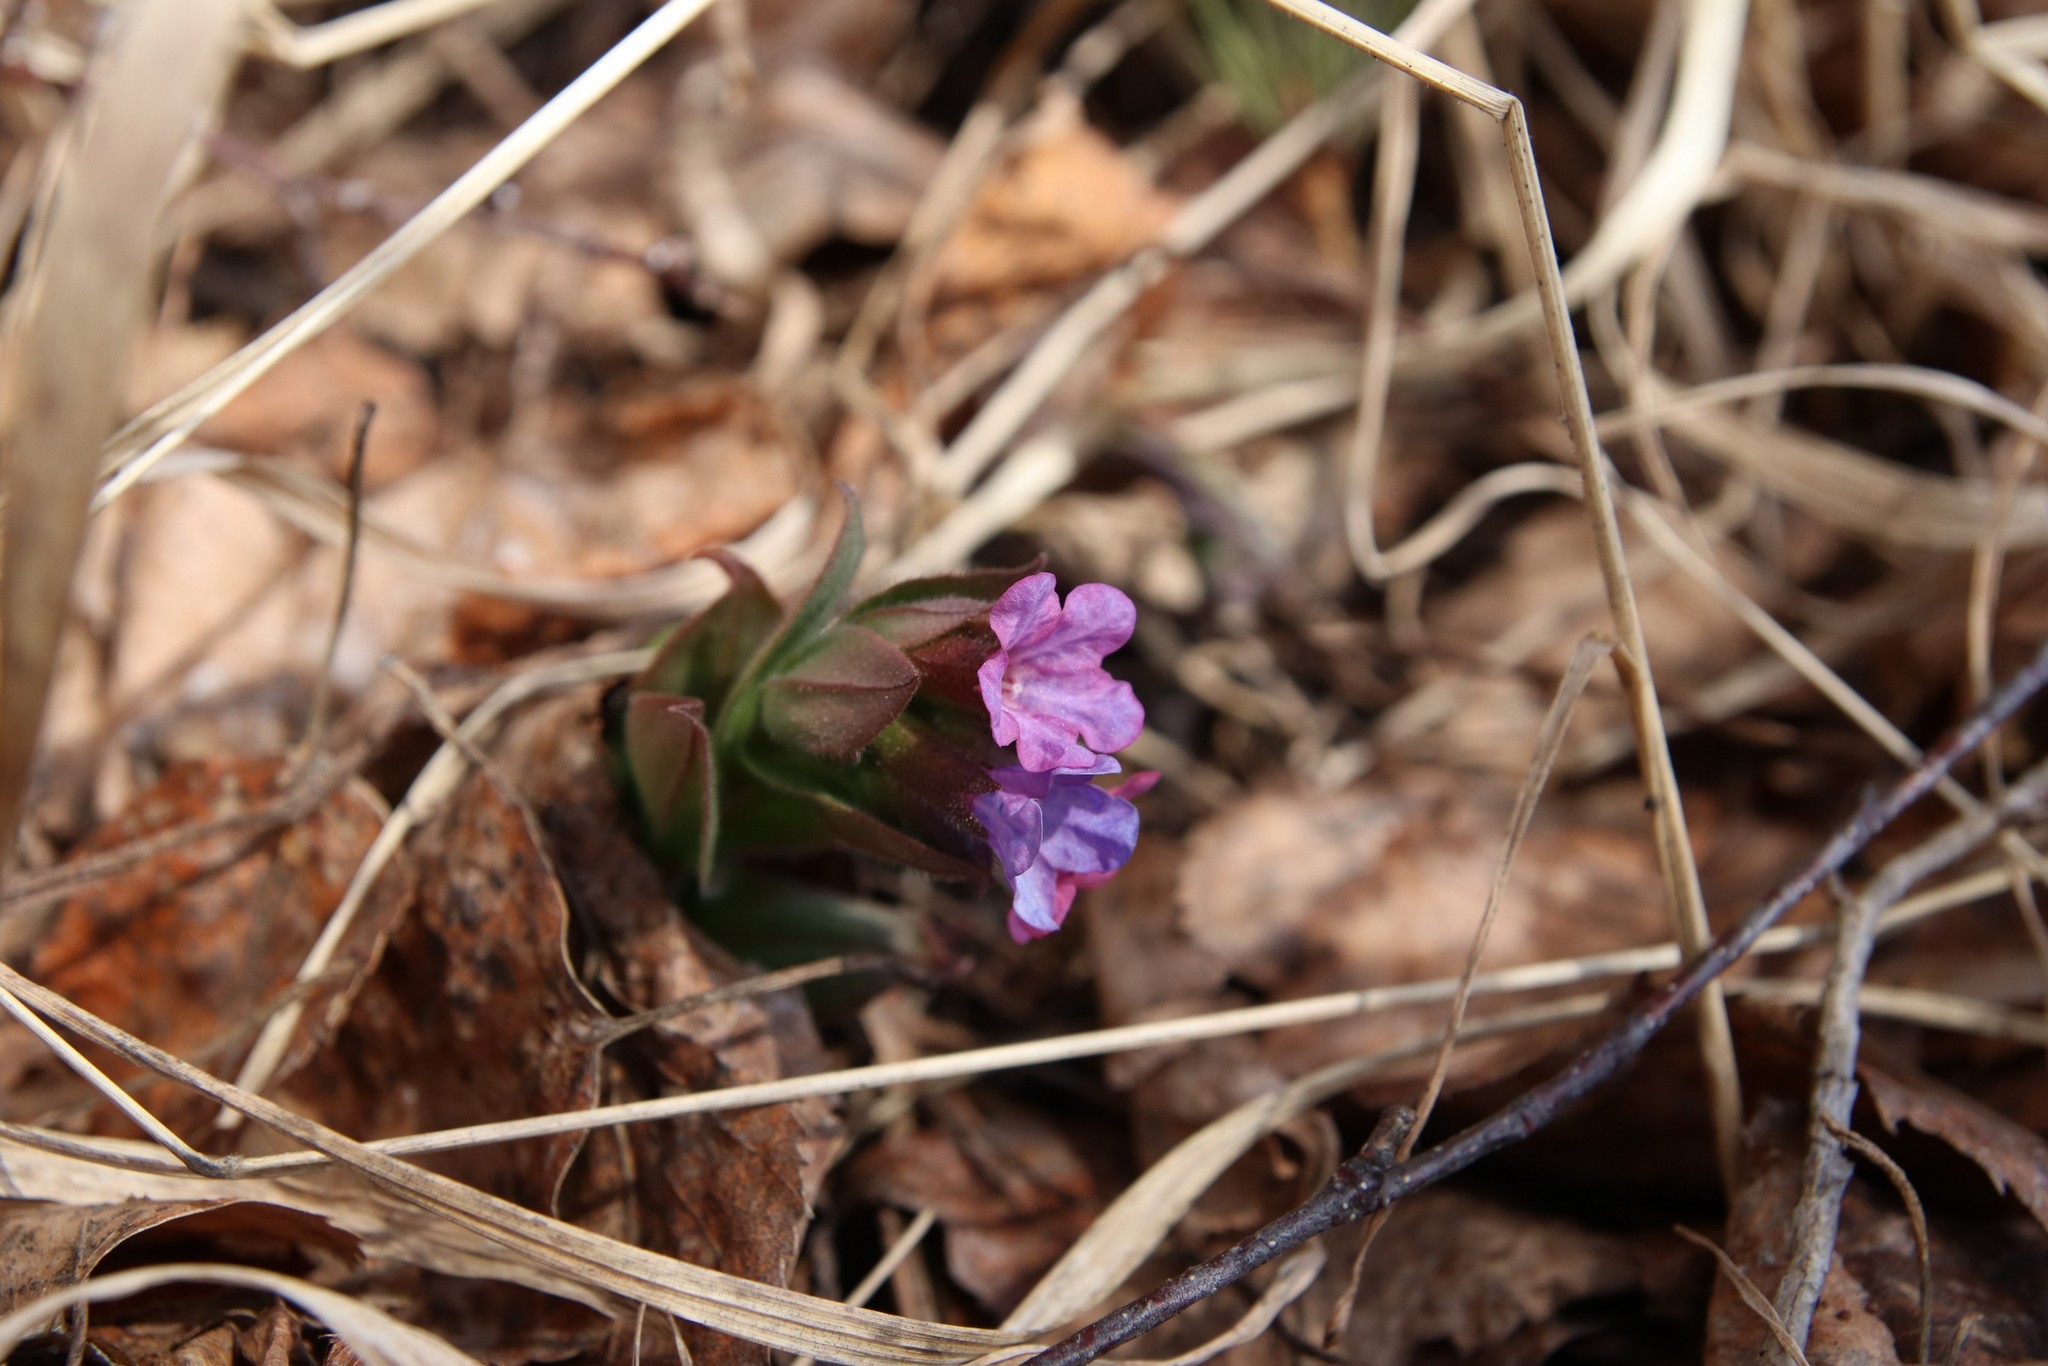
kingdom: Plantae
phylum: Tracheophyta
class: Magnoliopsida
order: Boraginales
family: Boraginaceae
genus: Pulmonaria
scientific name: Pulmonaria obscura
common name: Suffolk lungwort
